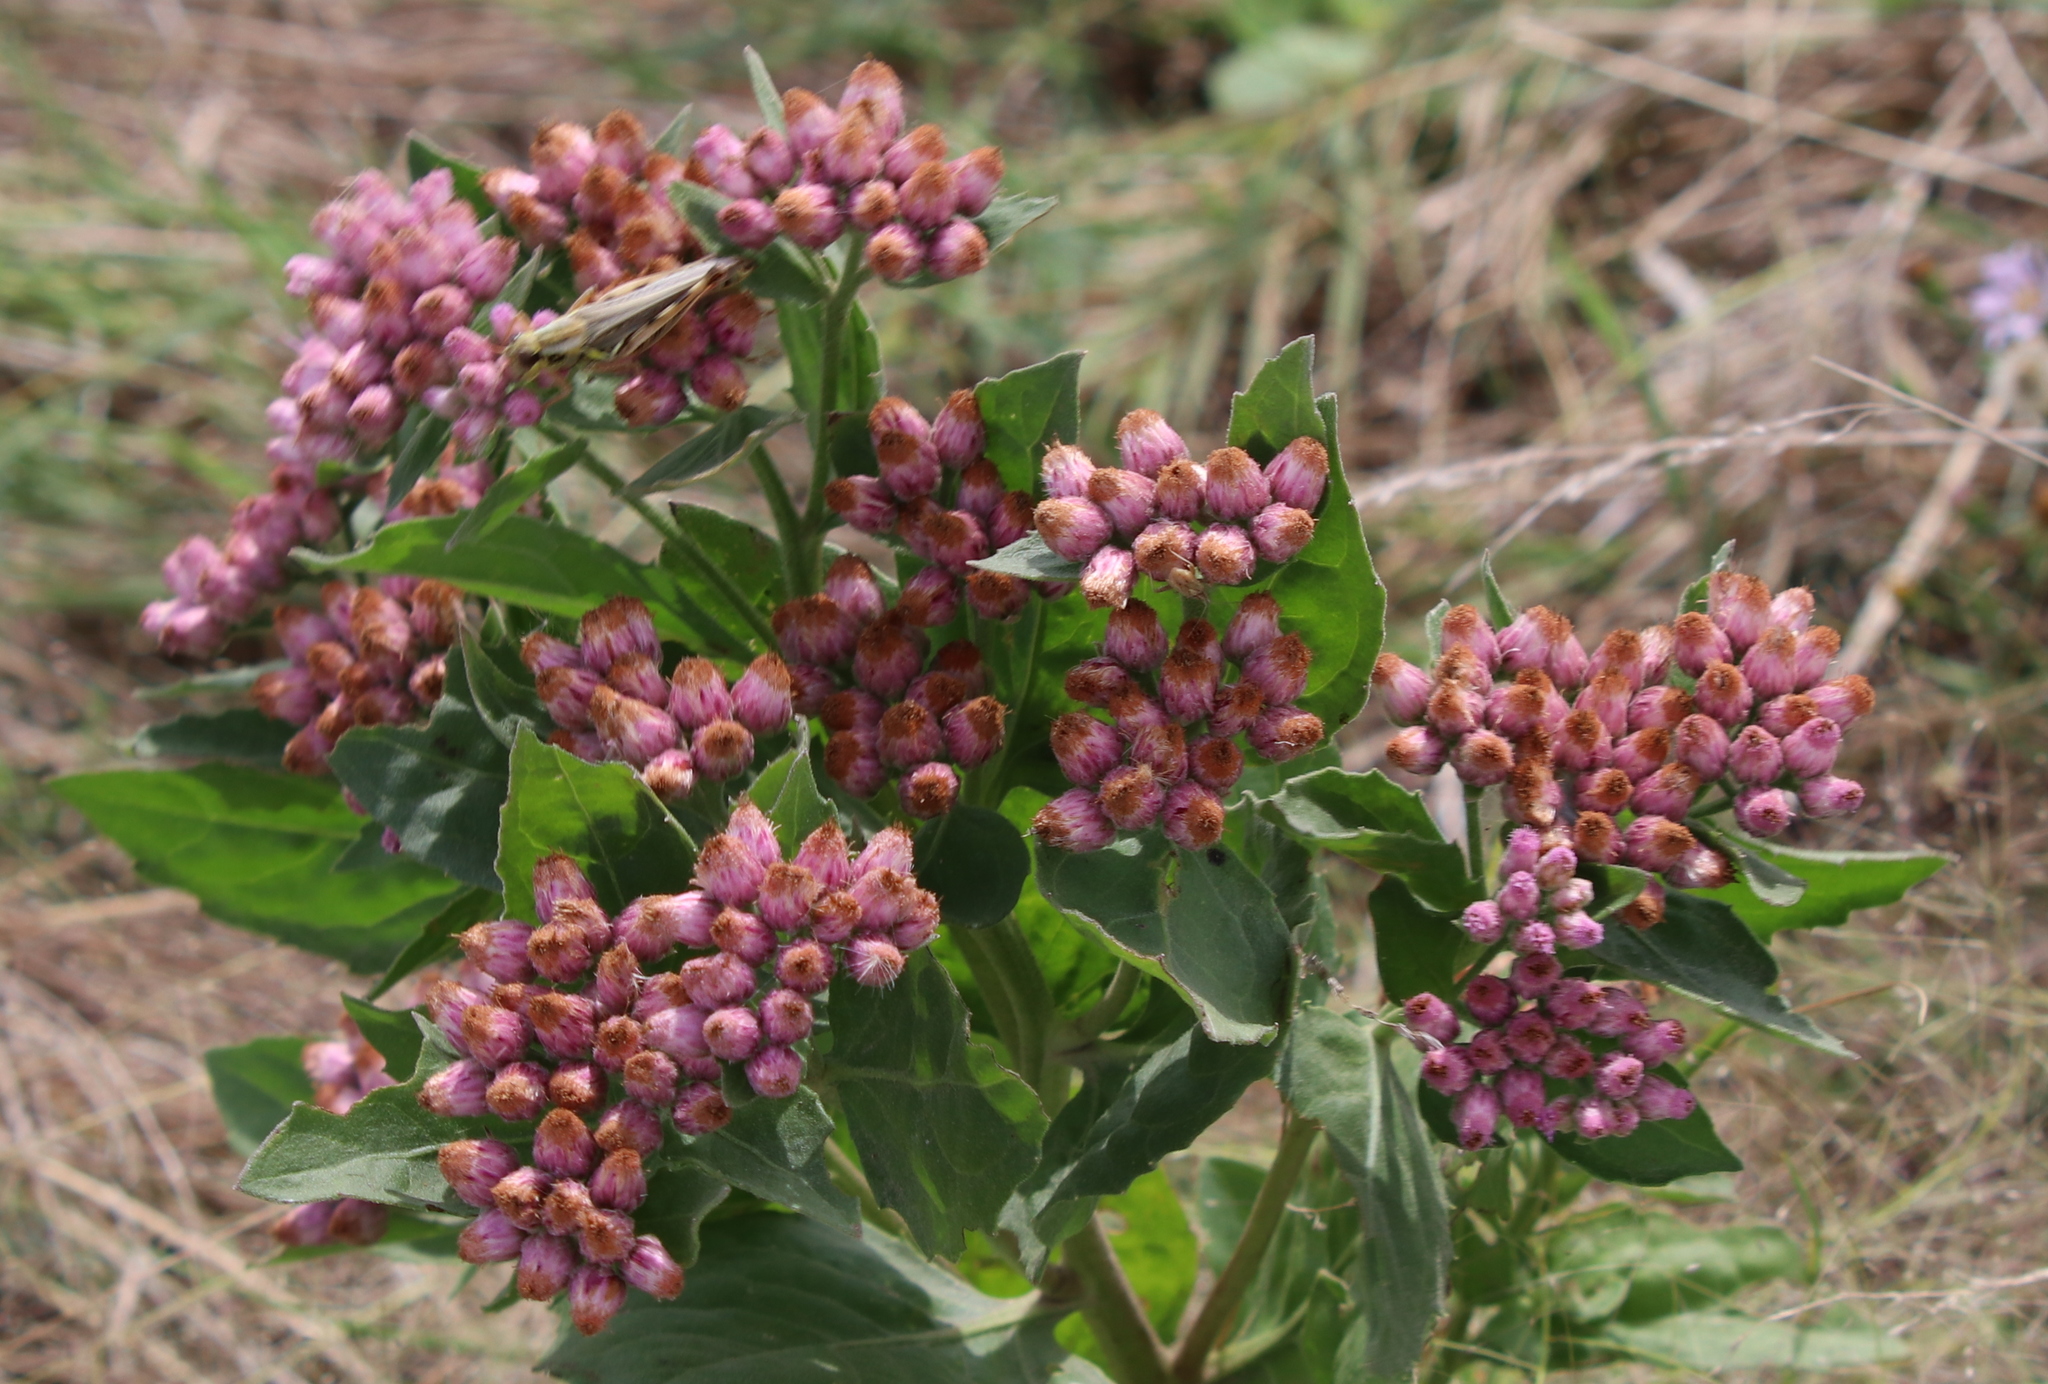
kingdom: Plantae
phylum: Tracheophyta
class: Magnoliopsida
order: Asterales
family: Asteraceae
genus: Pluchea
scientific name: Pluchea odorata
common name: Saltmarsh fleabane
